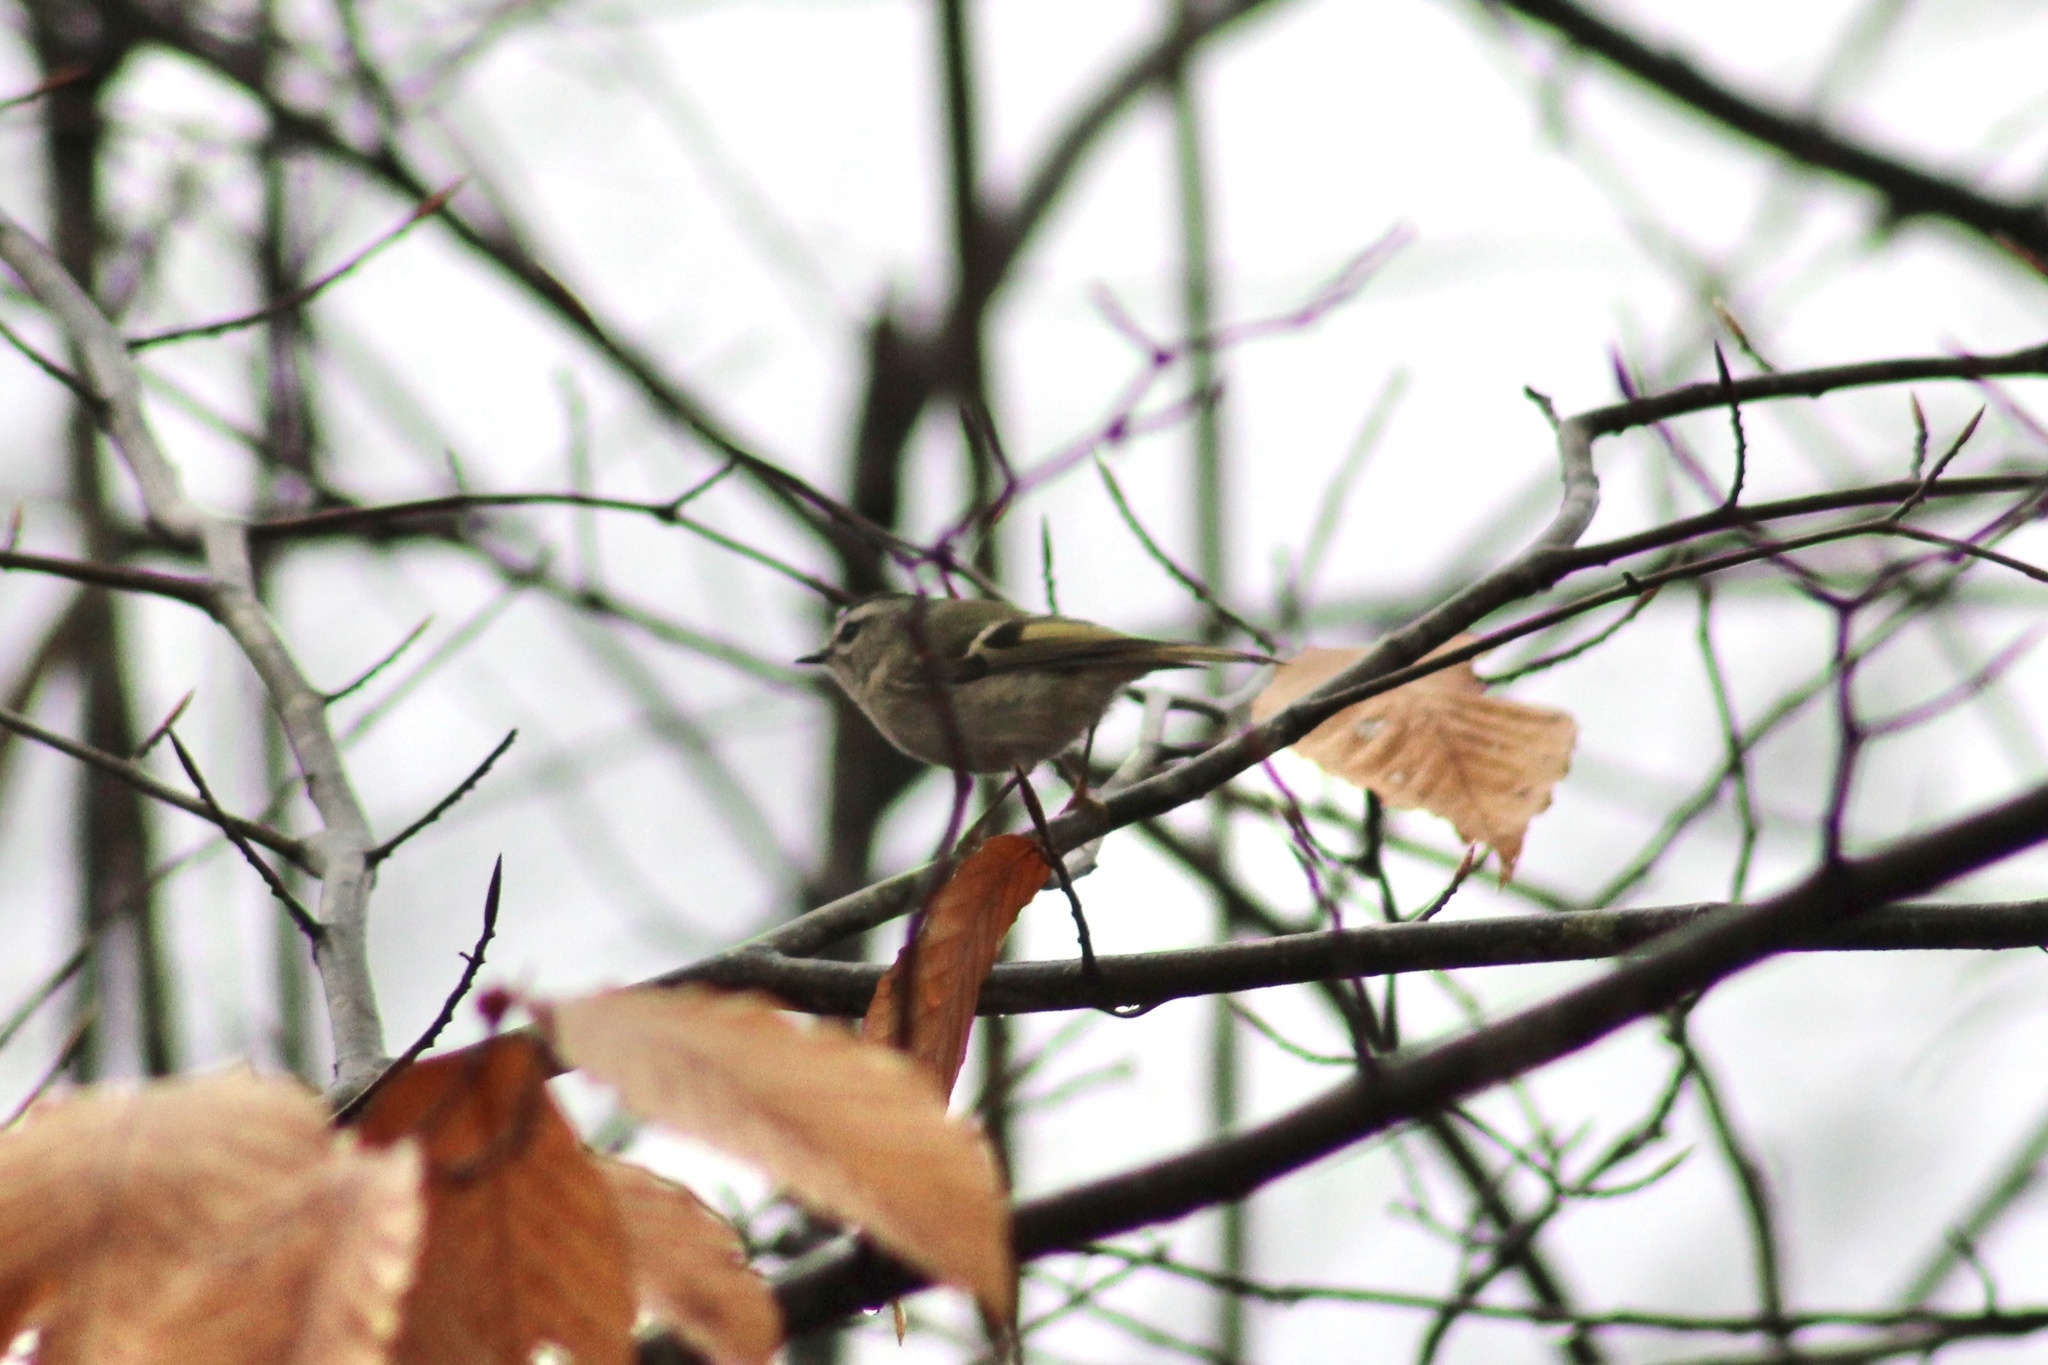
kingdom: Animalia
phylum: Chordata
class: Aves
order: Passeriformes
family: Regulidae
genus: Regulus
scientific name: Regulus satrapa
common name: Golden-crowned kinglet
